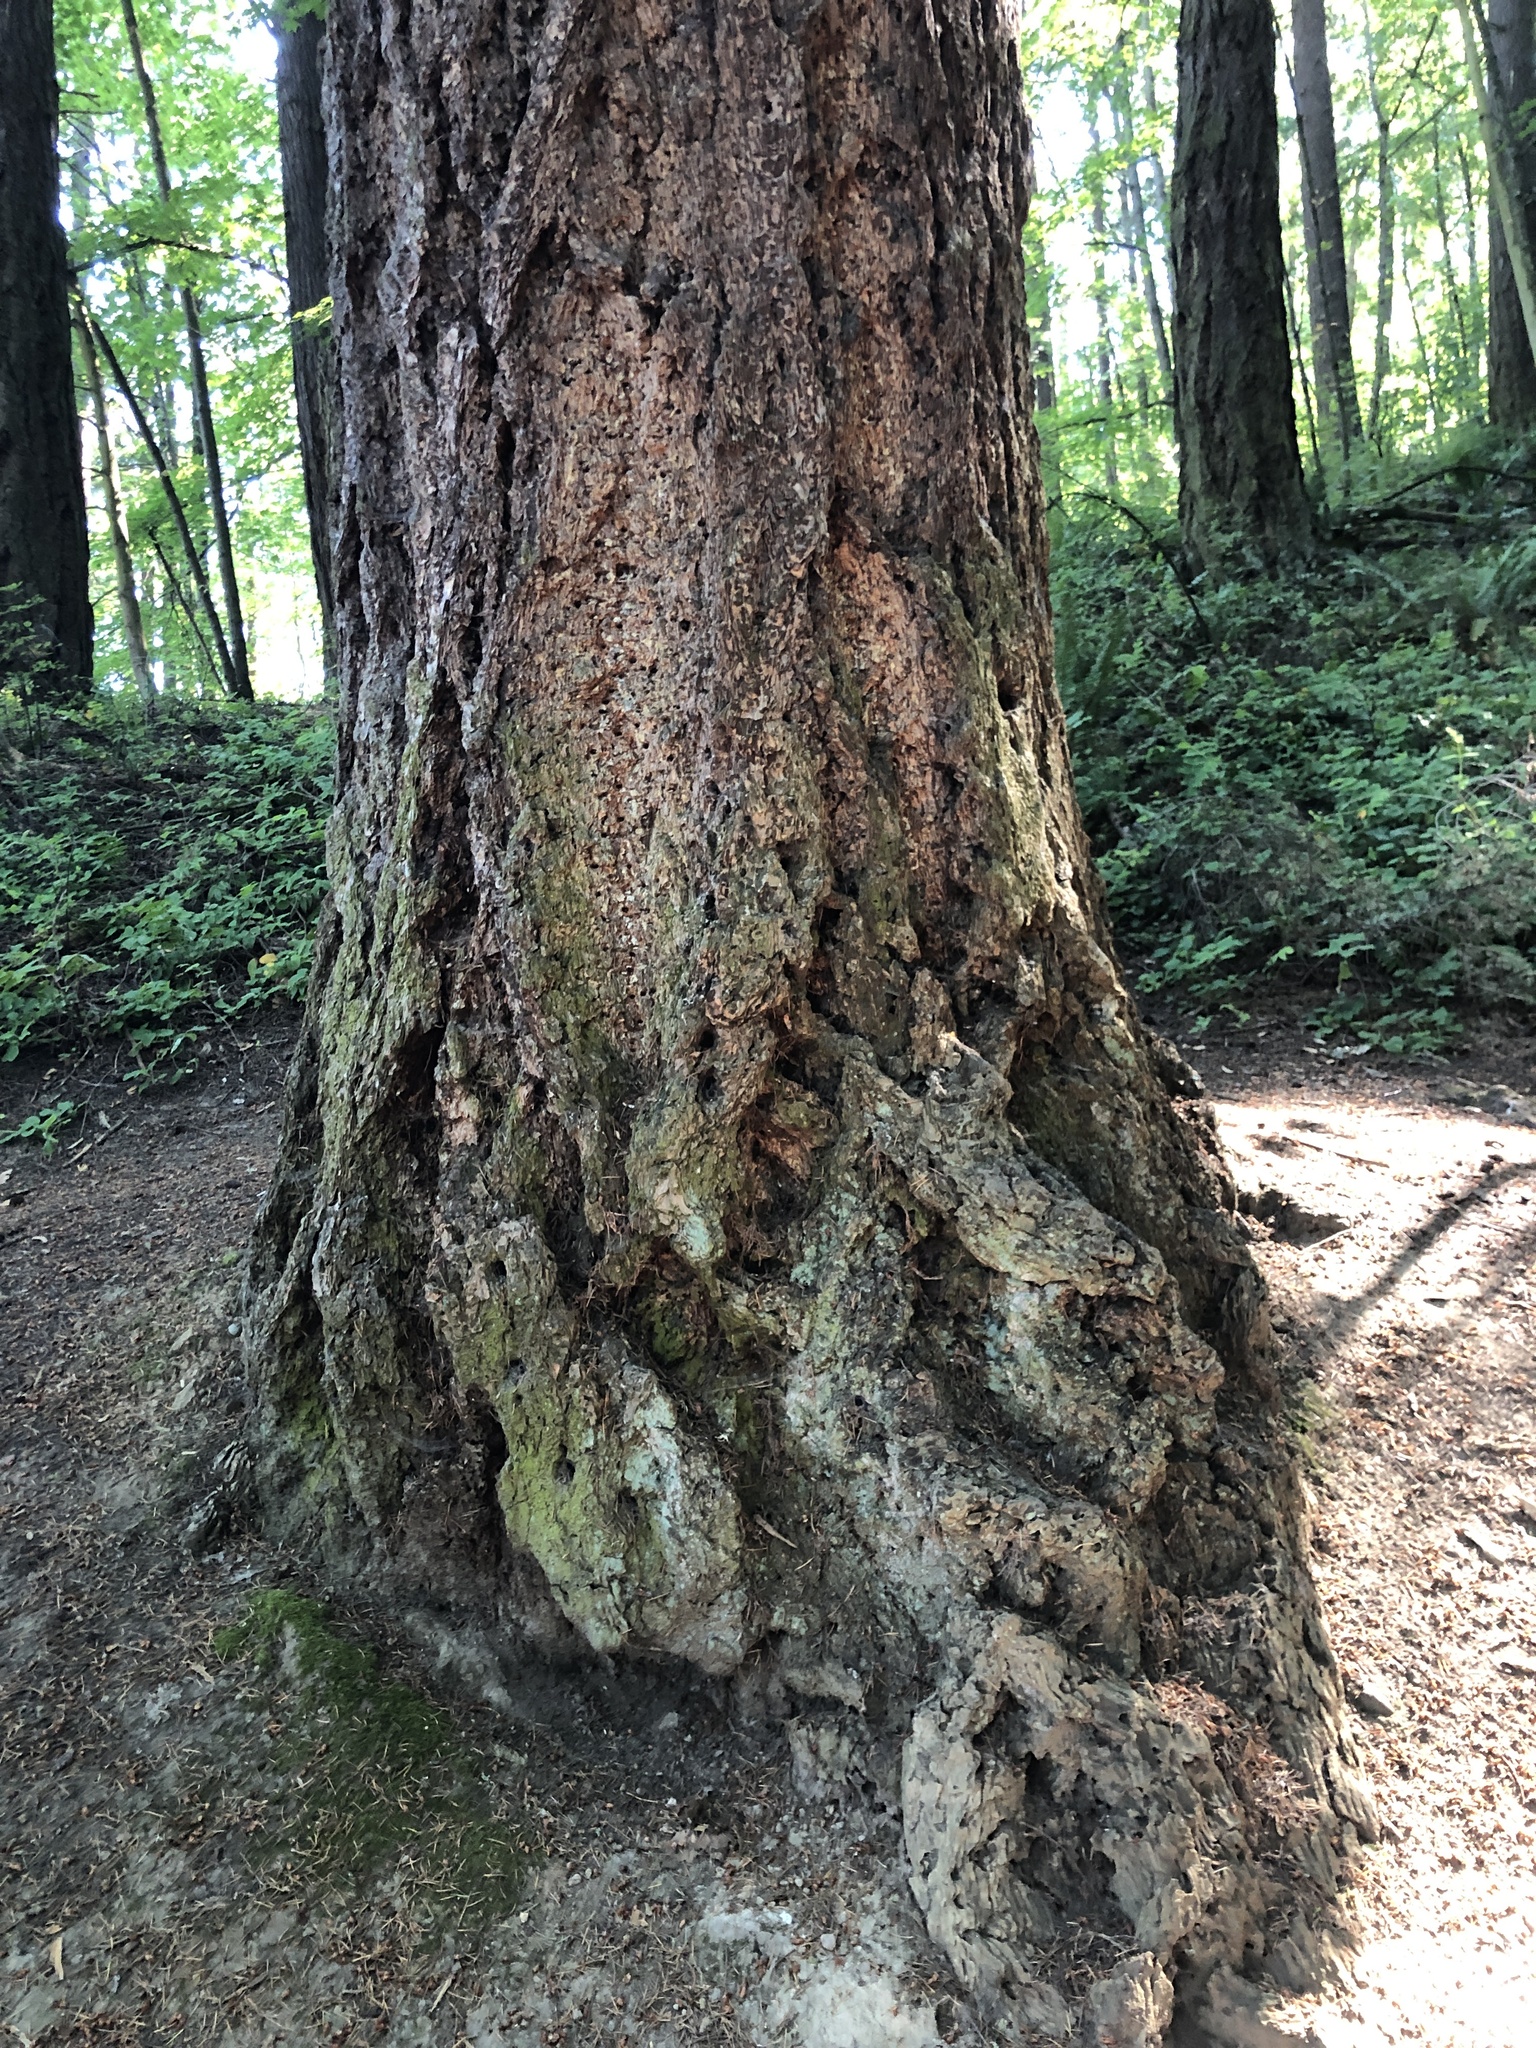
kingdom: Plantae
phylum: Tracheophyta
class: Pinopsida
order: Pinales
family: Pinaceae
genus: Pseudotsuga
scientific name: Pseudotsuga menziesii
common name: Douglas fir
